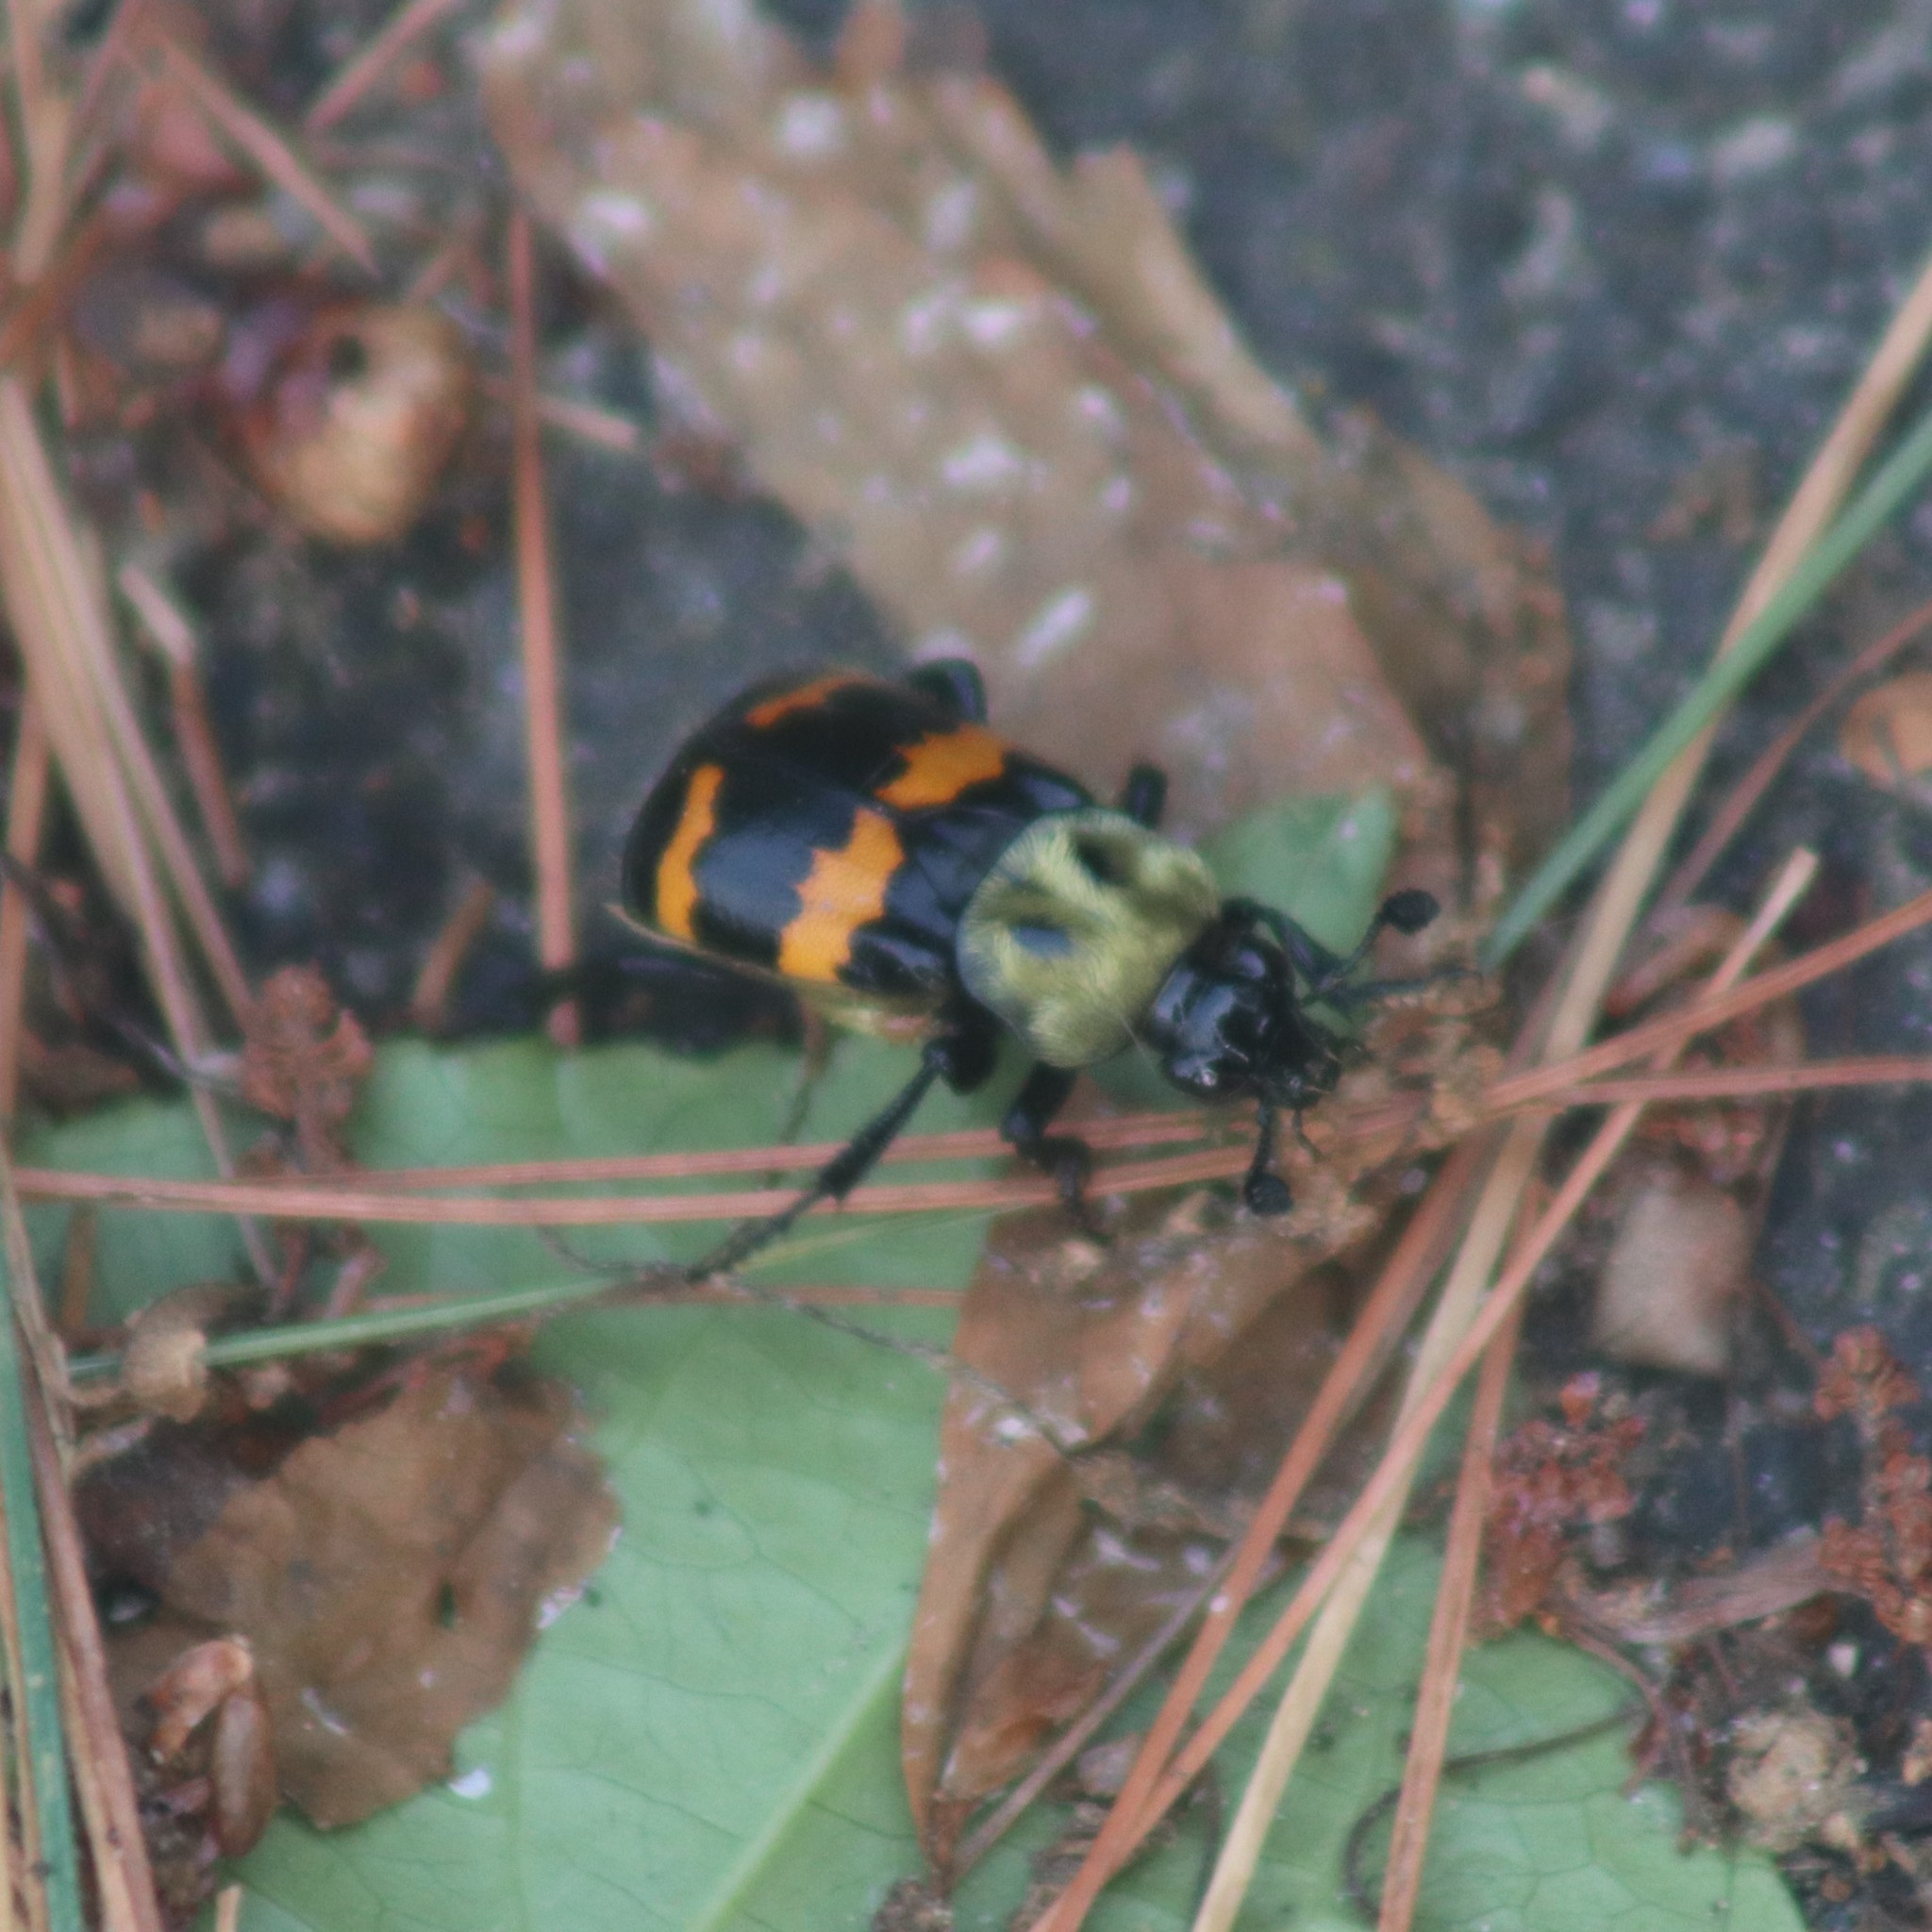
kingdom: Animalia
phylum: Arthropoda
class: Insecta
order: Coleoptera
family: Staphylinidae
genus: Nicrophorus
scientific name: Nicrophorus tomentosus
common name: Tomentose burying beetle
